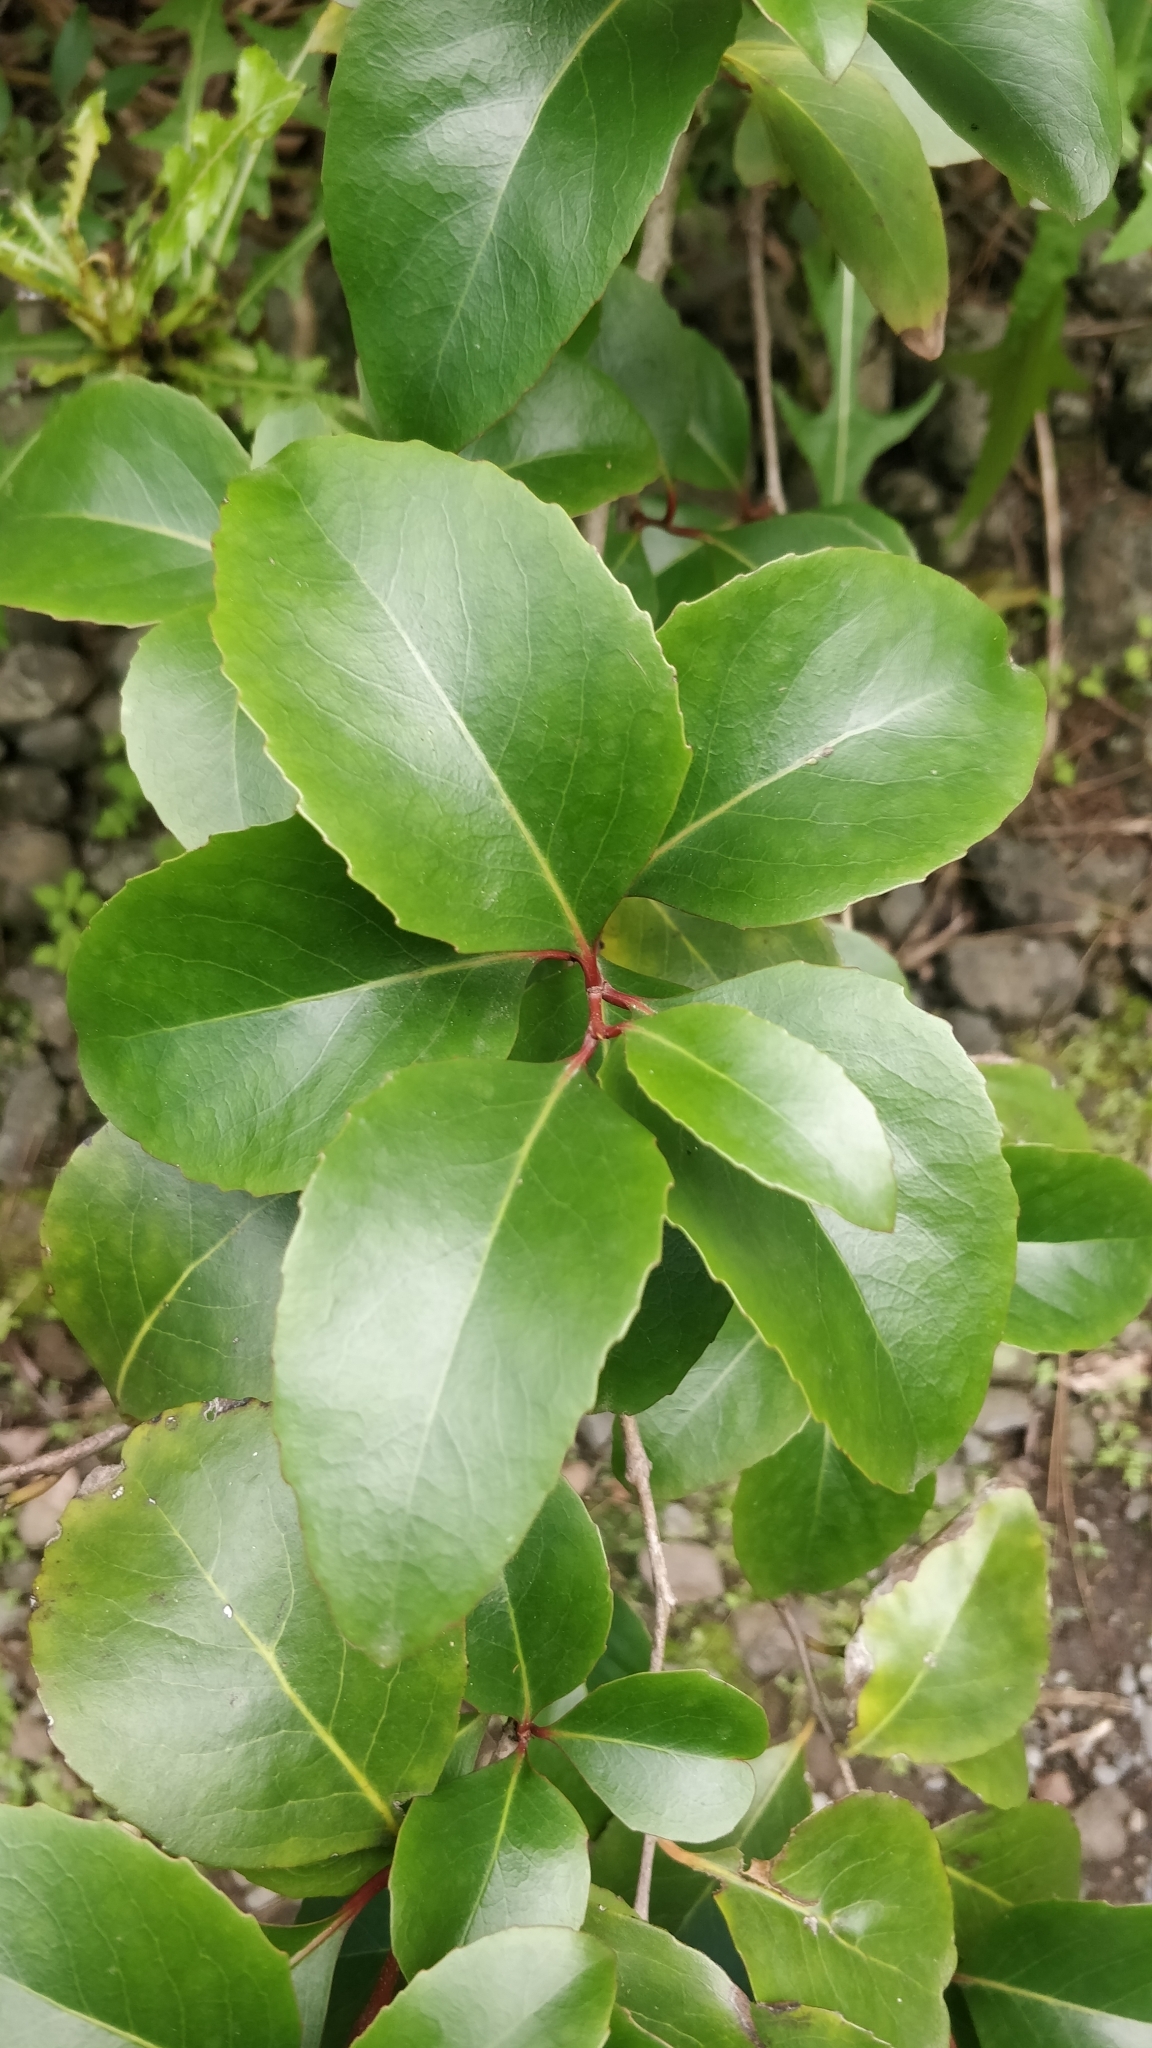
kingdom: Plantae
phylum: Tracheophyta
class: Magnoliopsida
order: Celastrales
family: Celastraceae
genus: Gymnosporia
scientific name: Gymnosporia cassinoides
